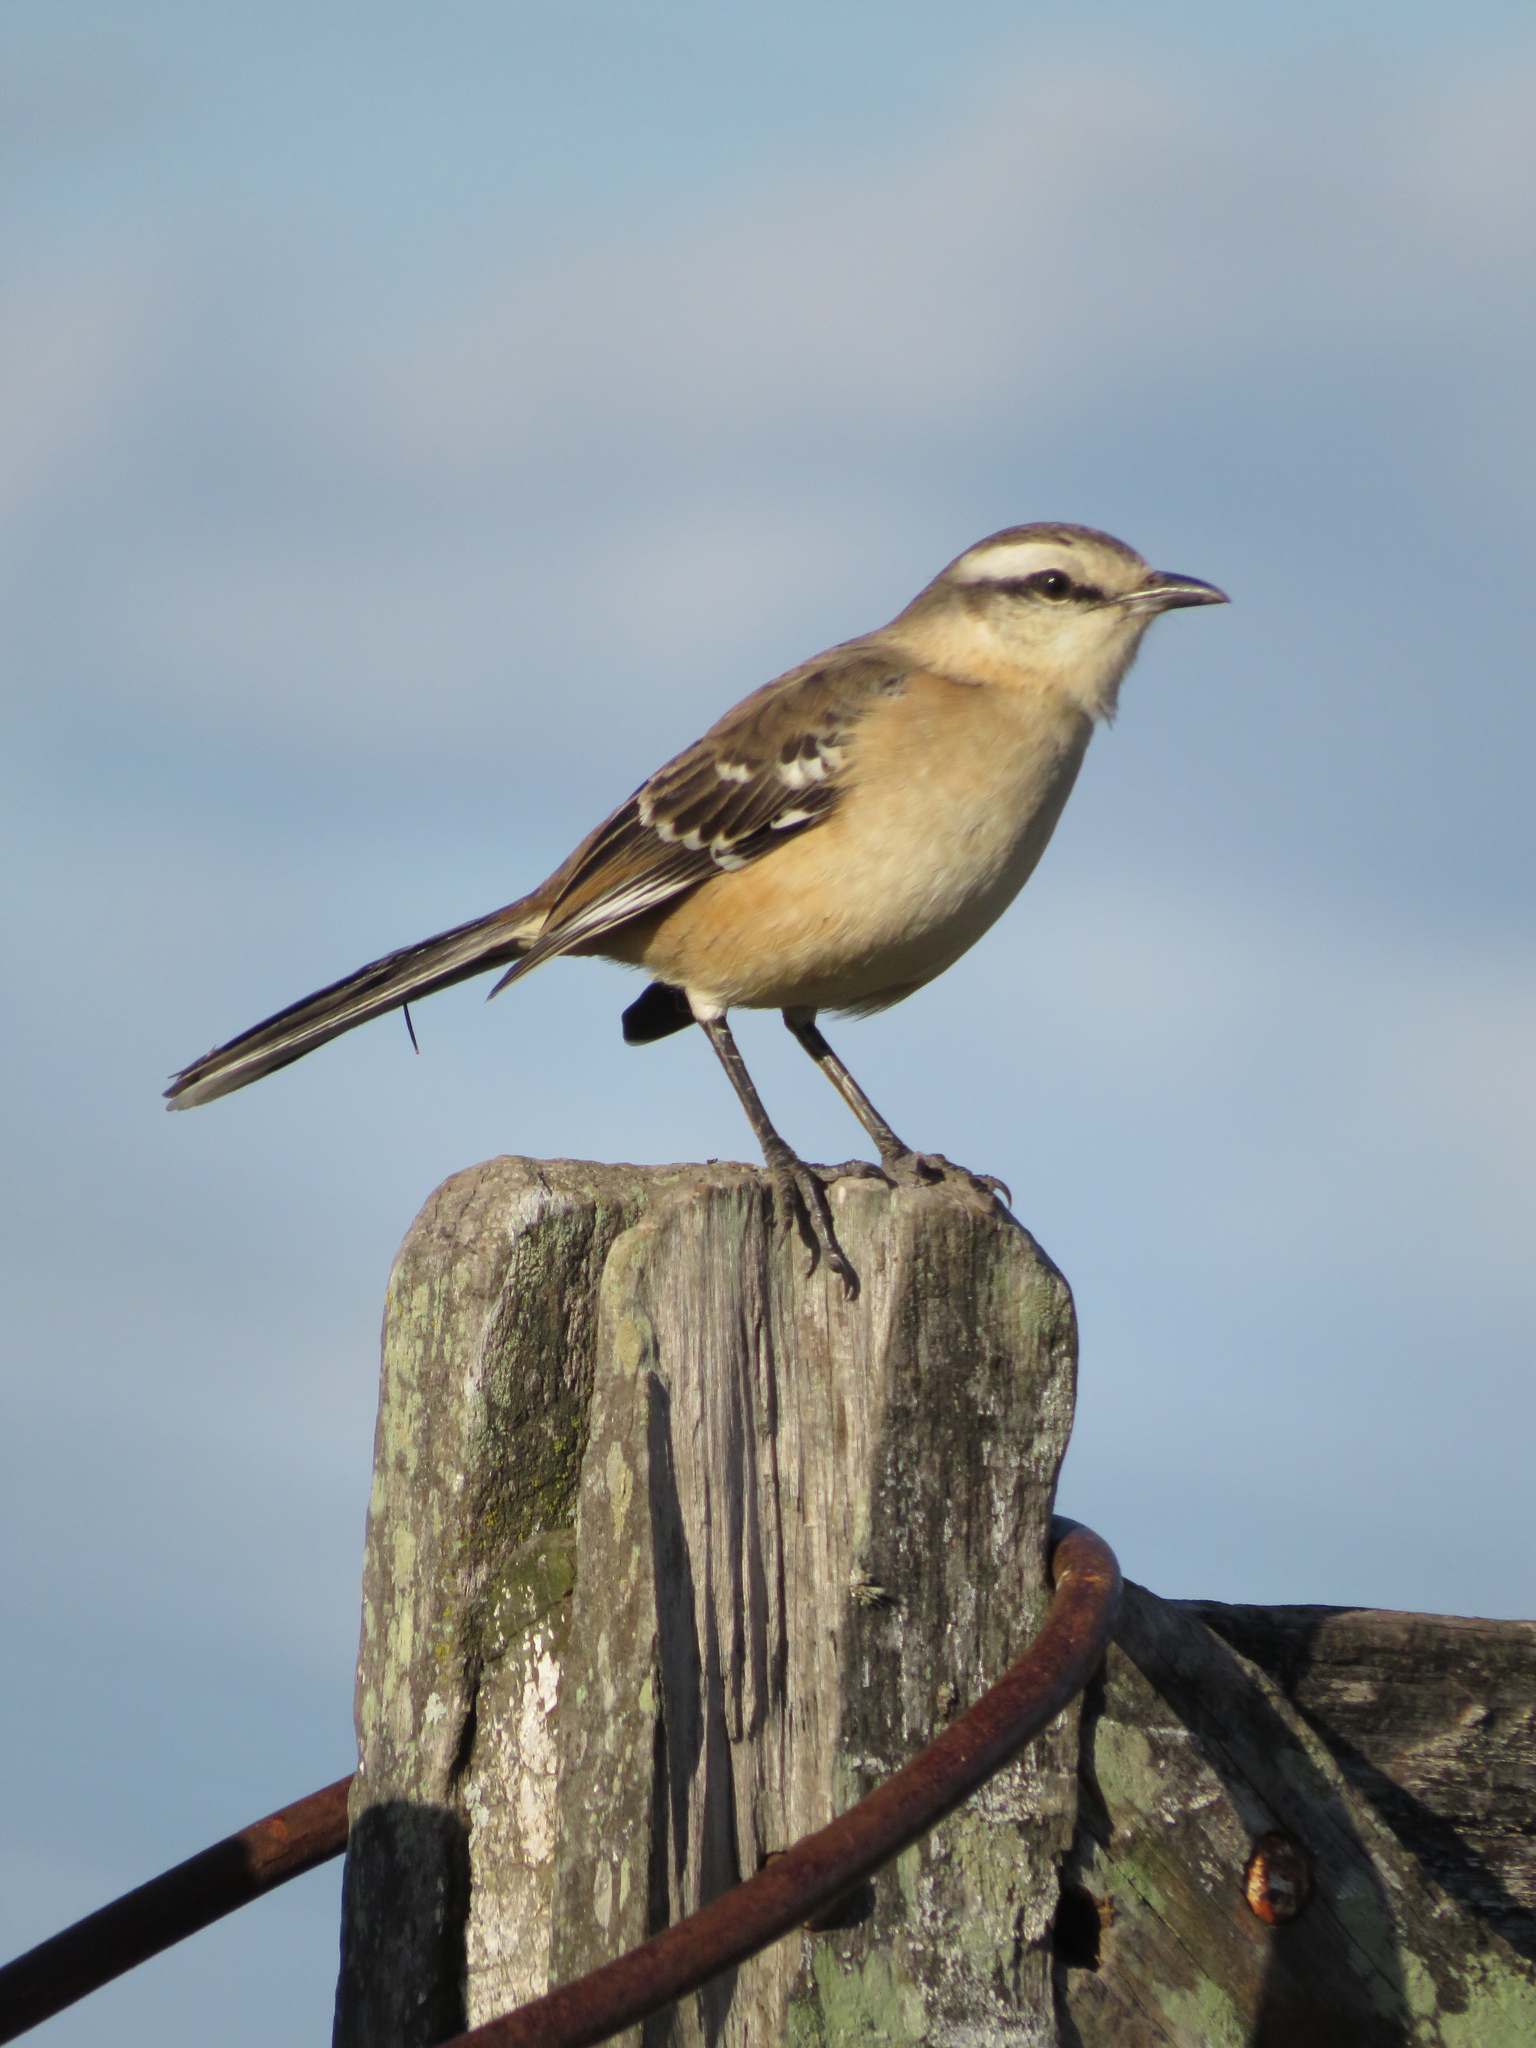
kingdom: Animalia
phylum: Chordata
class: Aves
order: Passeriformes
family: Mimidae
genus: Mimus
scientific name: Mimus saturninus
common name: Chalk-browed mockingbird
